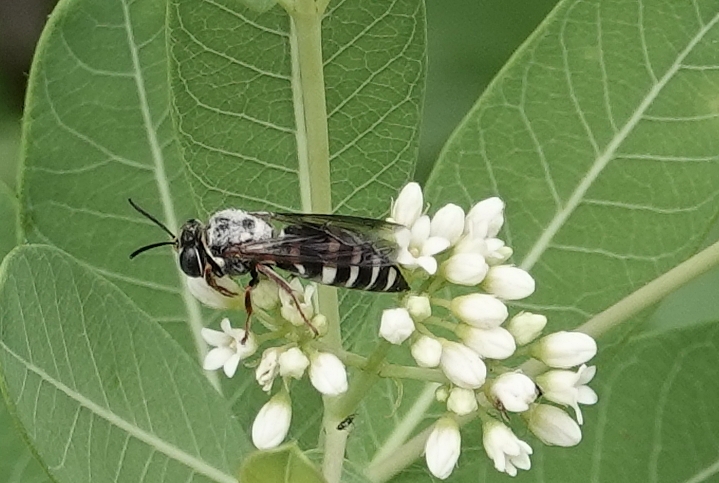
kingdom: Animalia
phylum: Arthropoda
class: Insecta
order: Hymenoptera
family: Crabronidae
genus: Bicyrtes
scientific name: Bicyrtes ventralis
